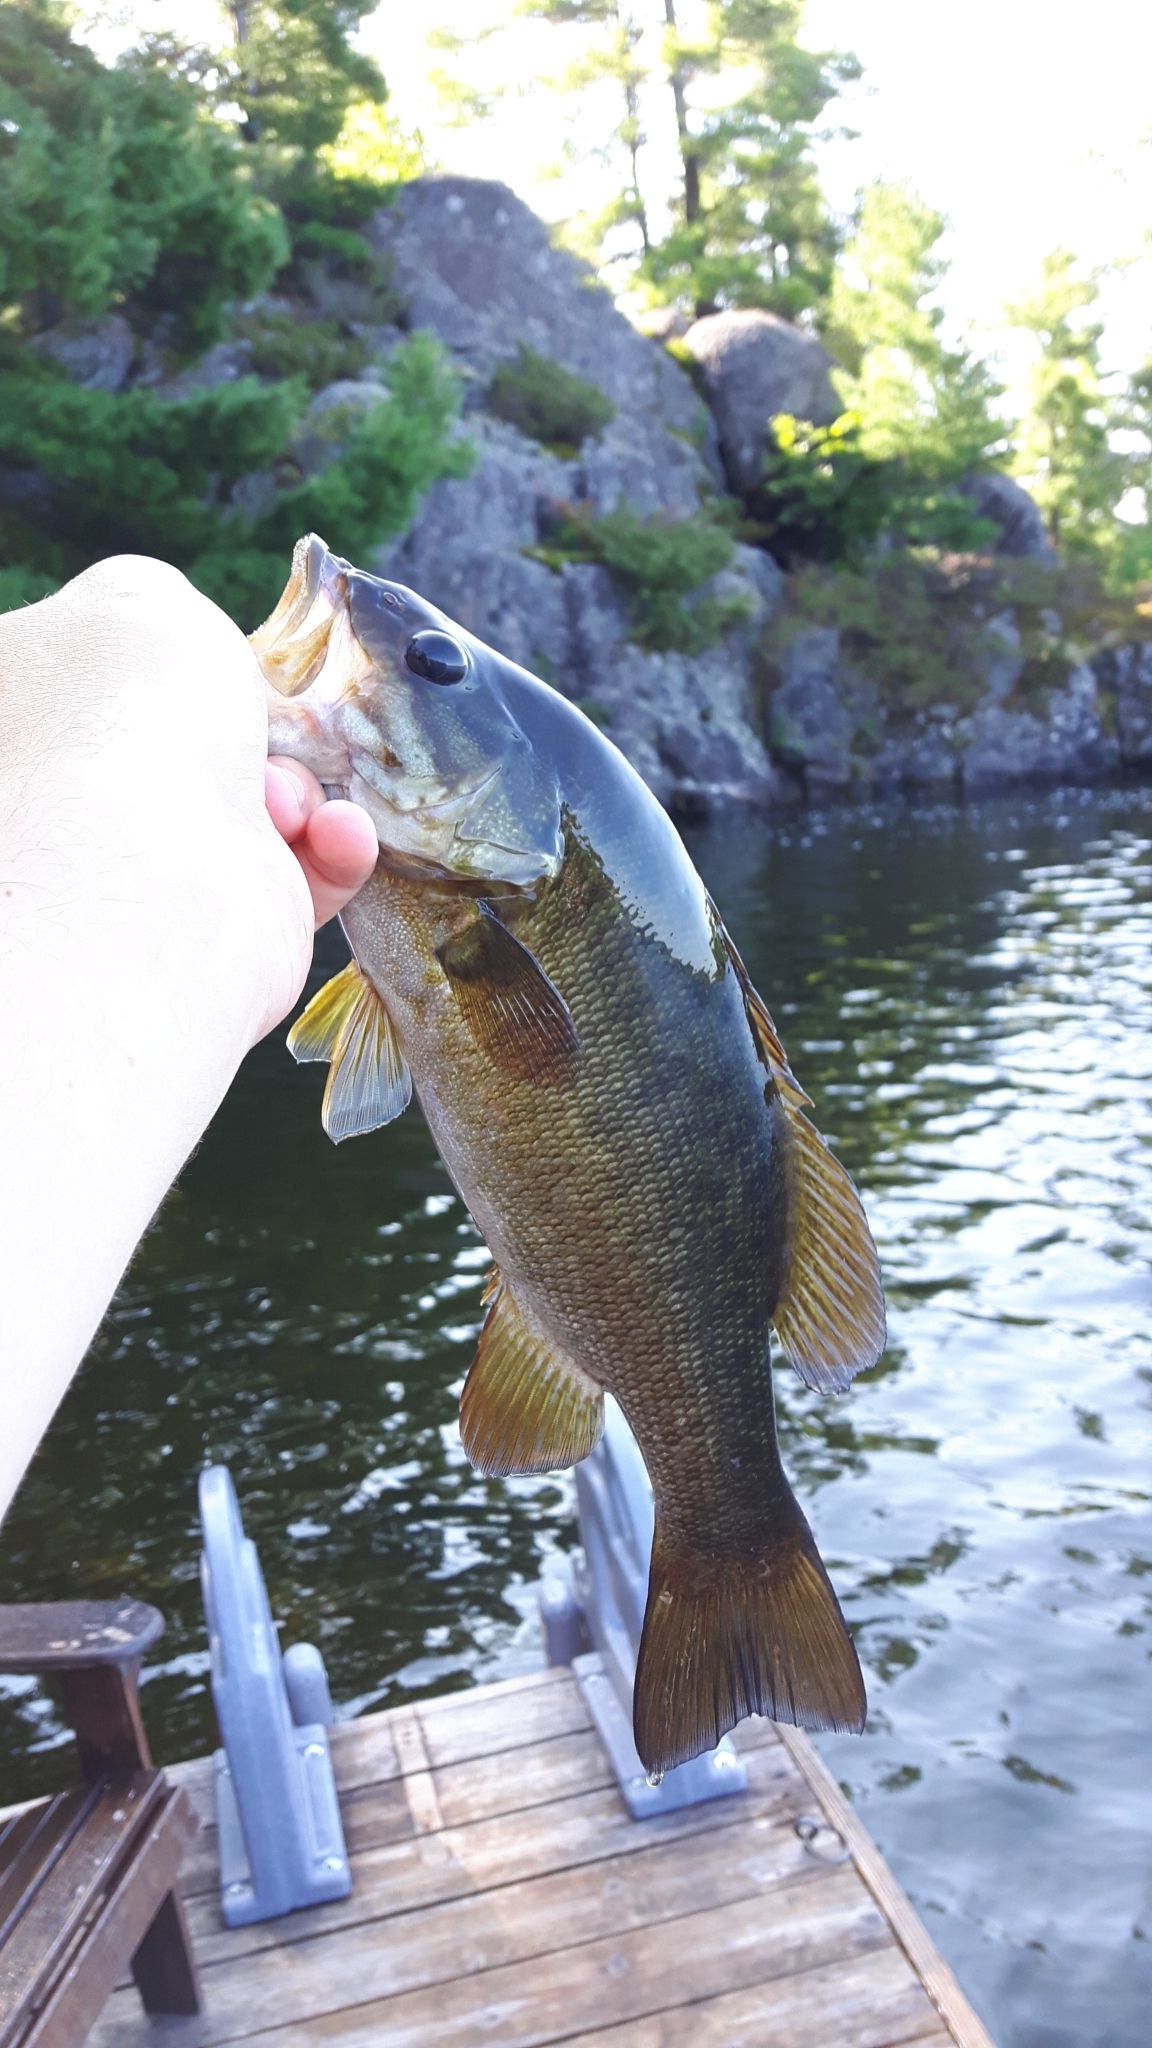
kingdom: Animalia
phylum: Chordata
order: Perciformes
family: Centrarchidae
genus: Micropterus
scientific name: Micropterus dolomieu
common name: Smallmouth bass
